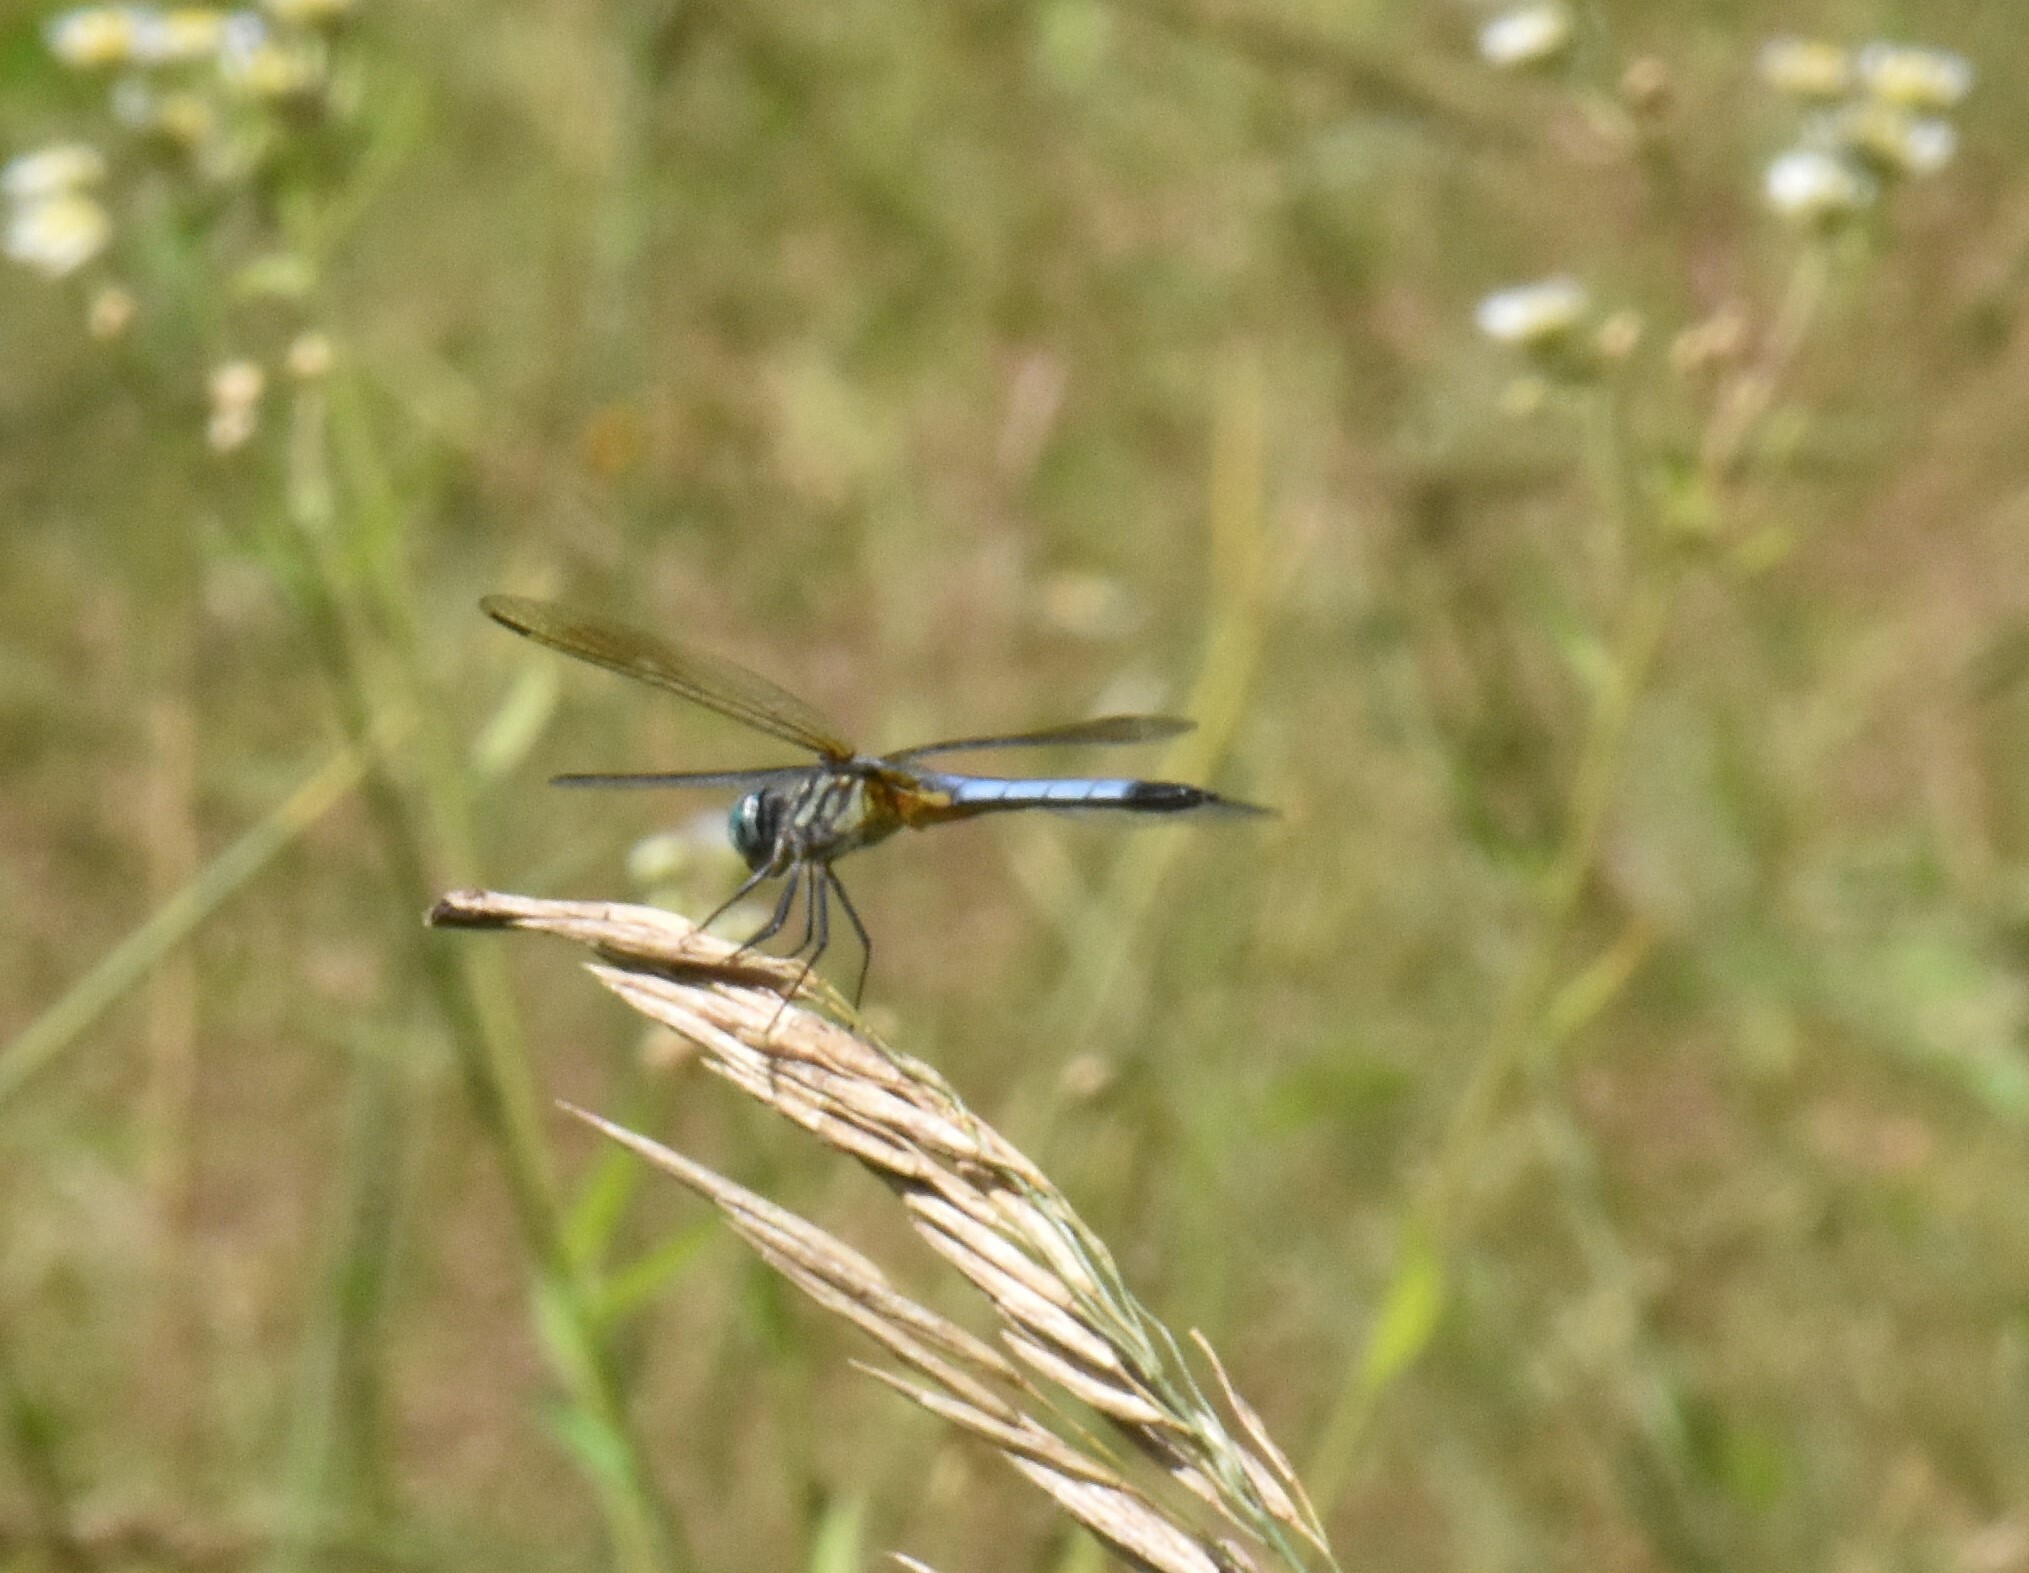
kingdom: Animalia
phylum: Arthropoda
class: Insecta
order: Odonata
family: Libellulidae
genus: Pachydiplax
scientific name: Pachydiplax longipennis
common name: Blue dasher
